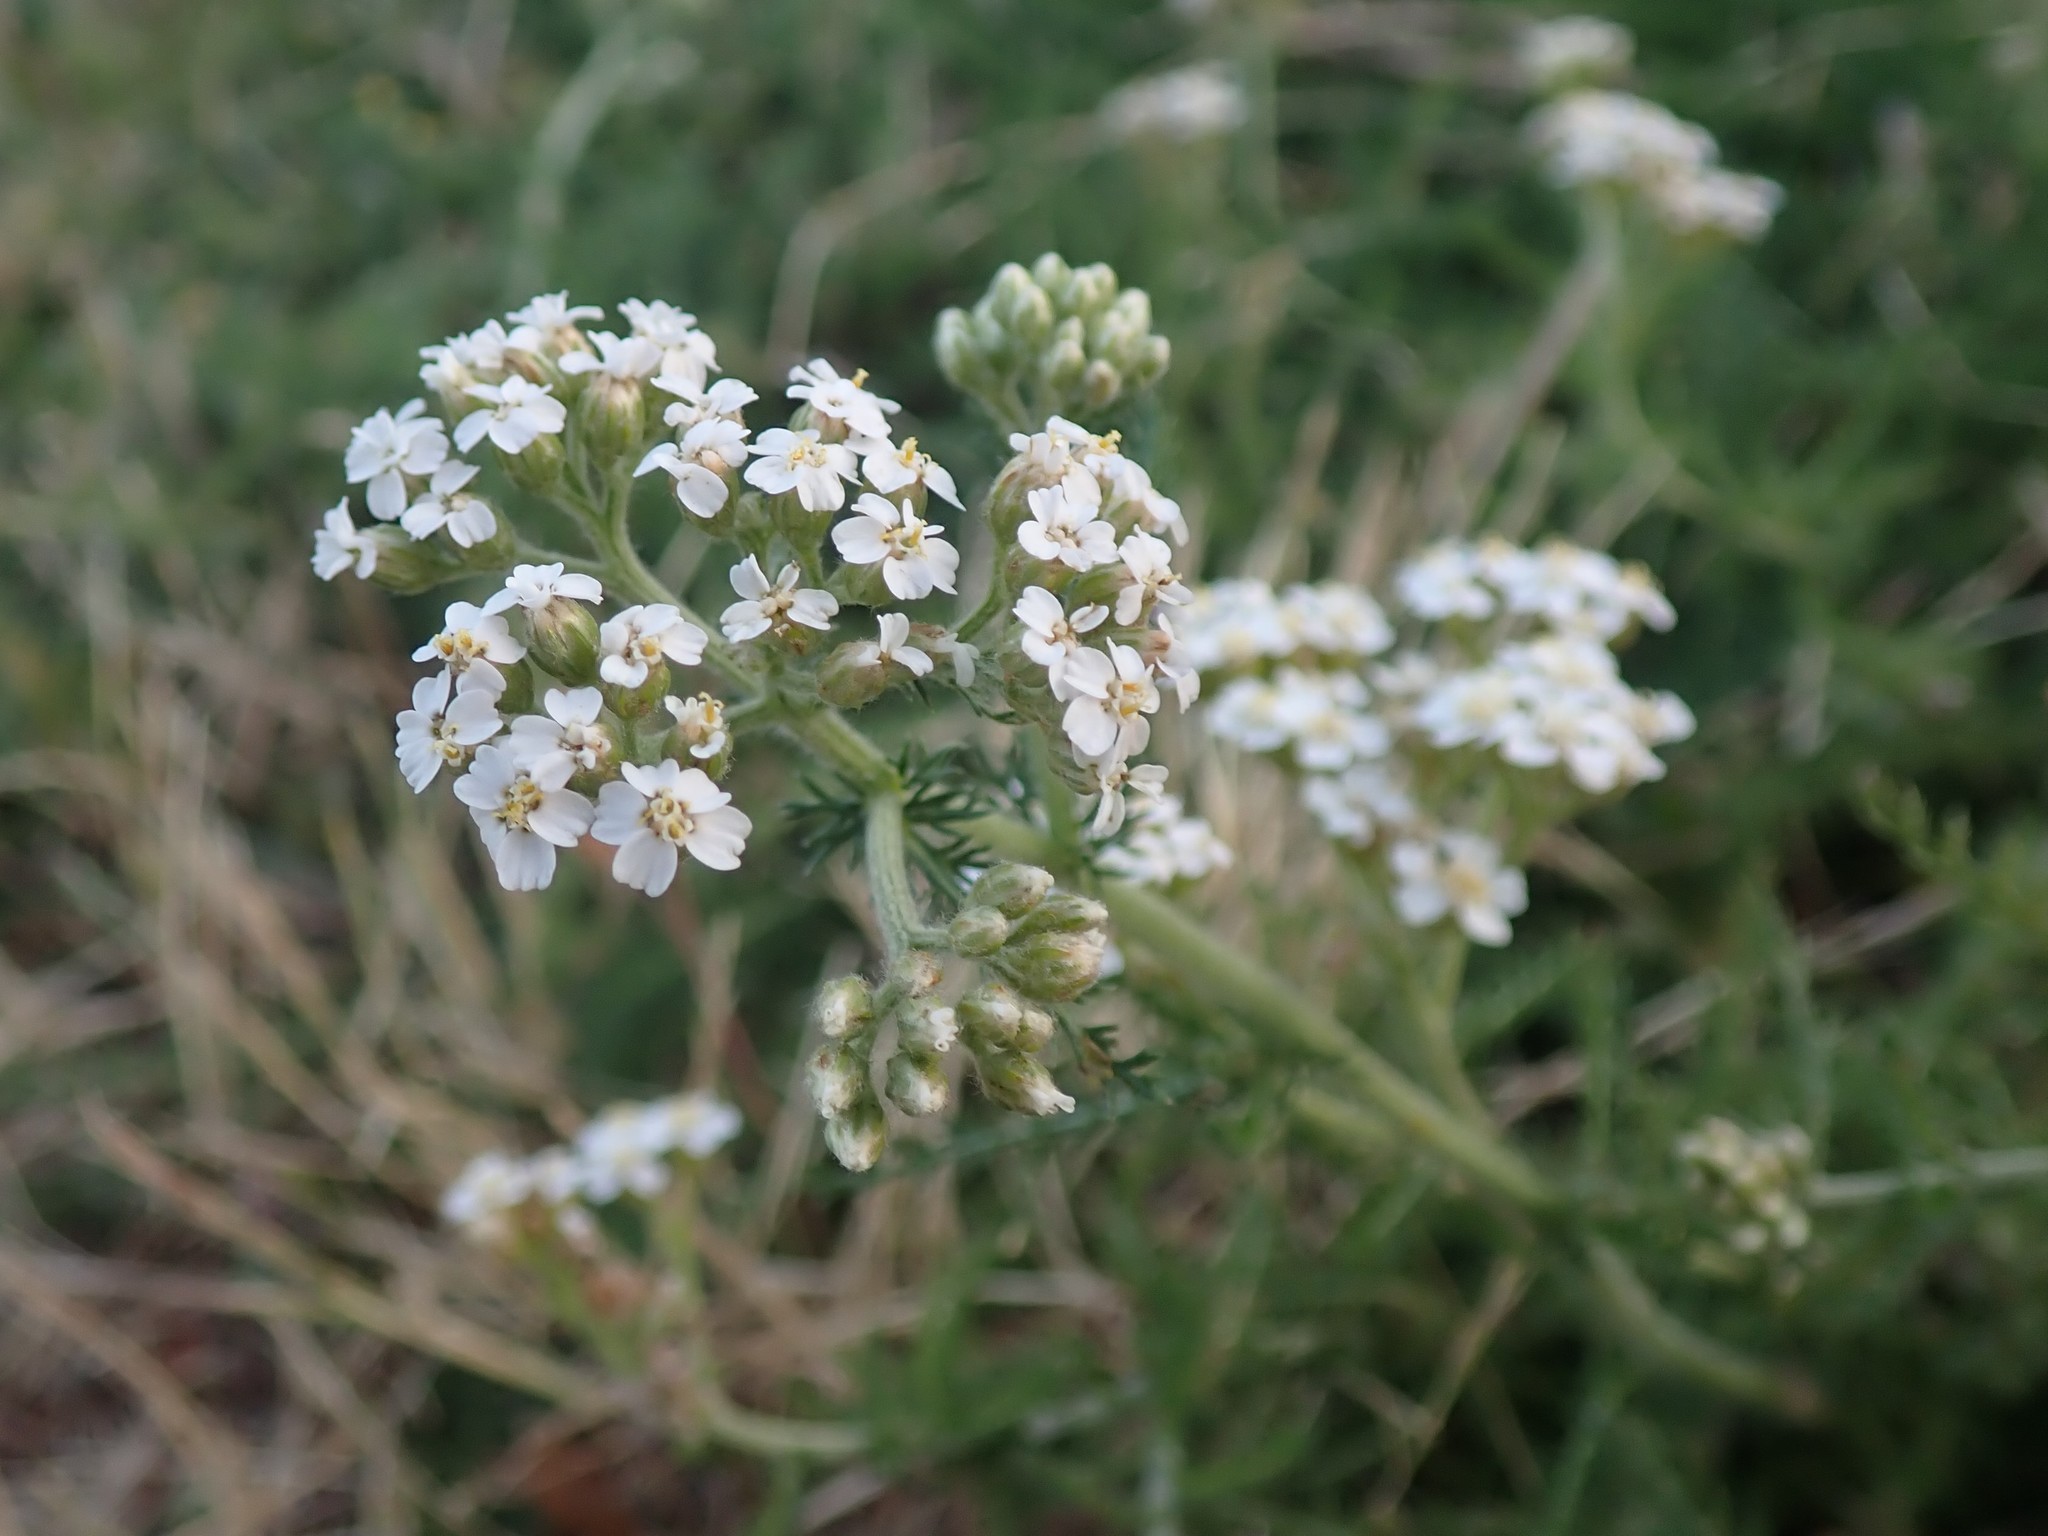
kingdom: Plantae
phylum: Tracheophyta
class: Magnoliopsida
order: Asterales
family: Asteraceae
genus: Achillea
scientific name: Achillea millefolium
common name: Yarrow
